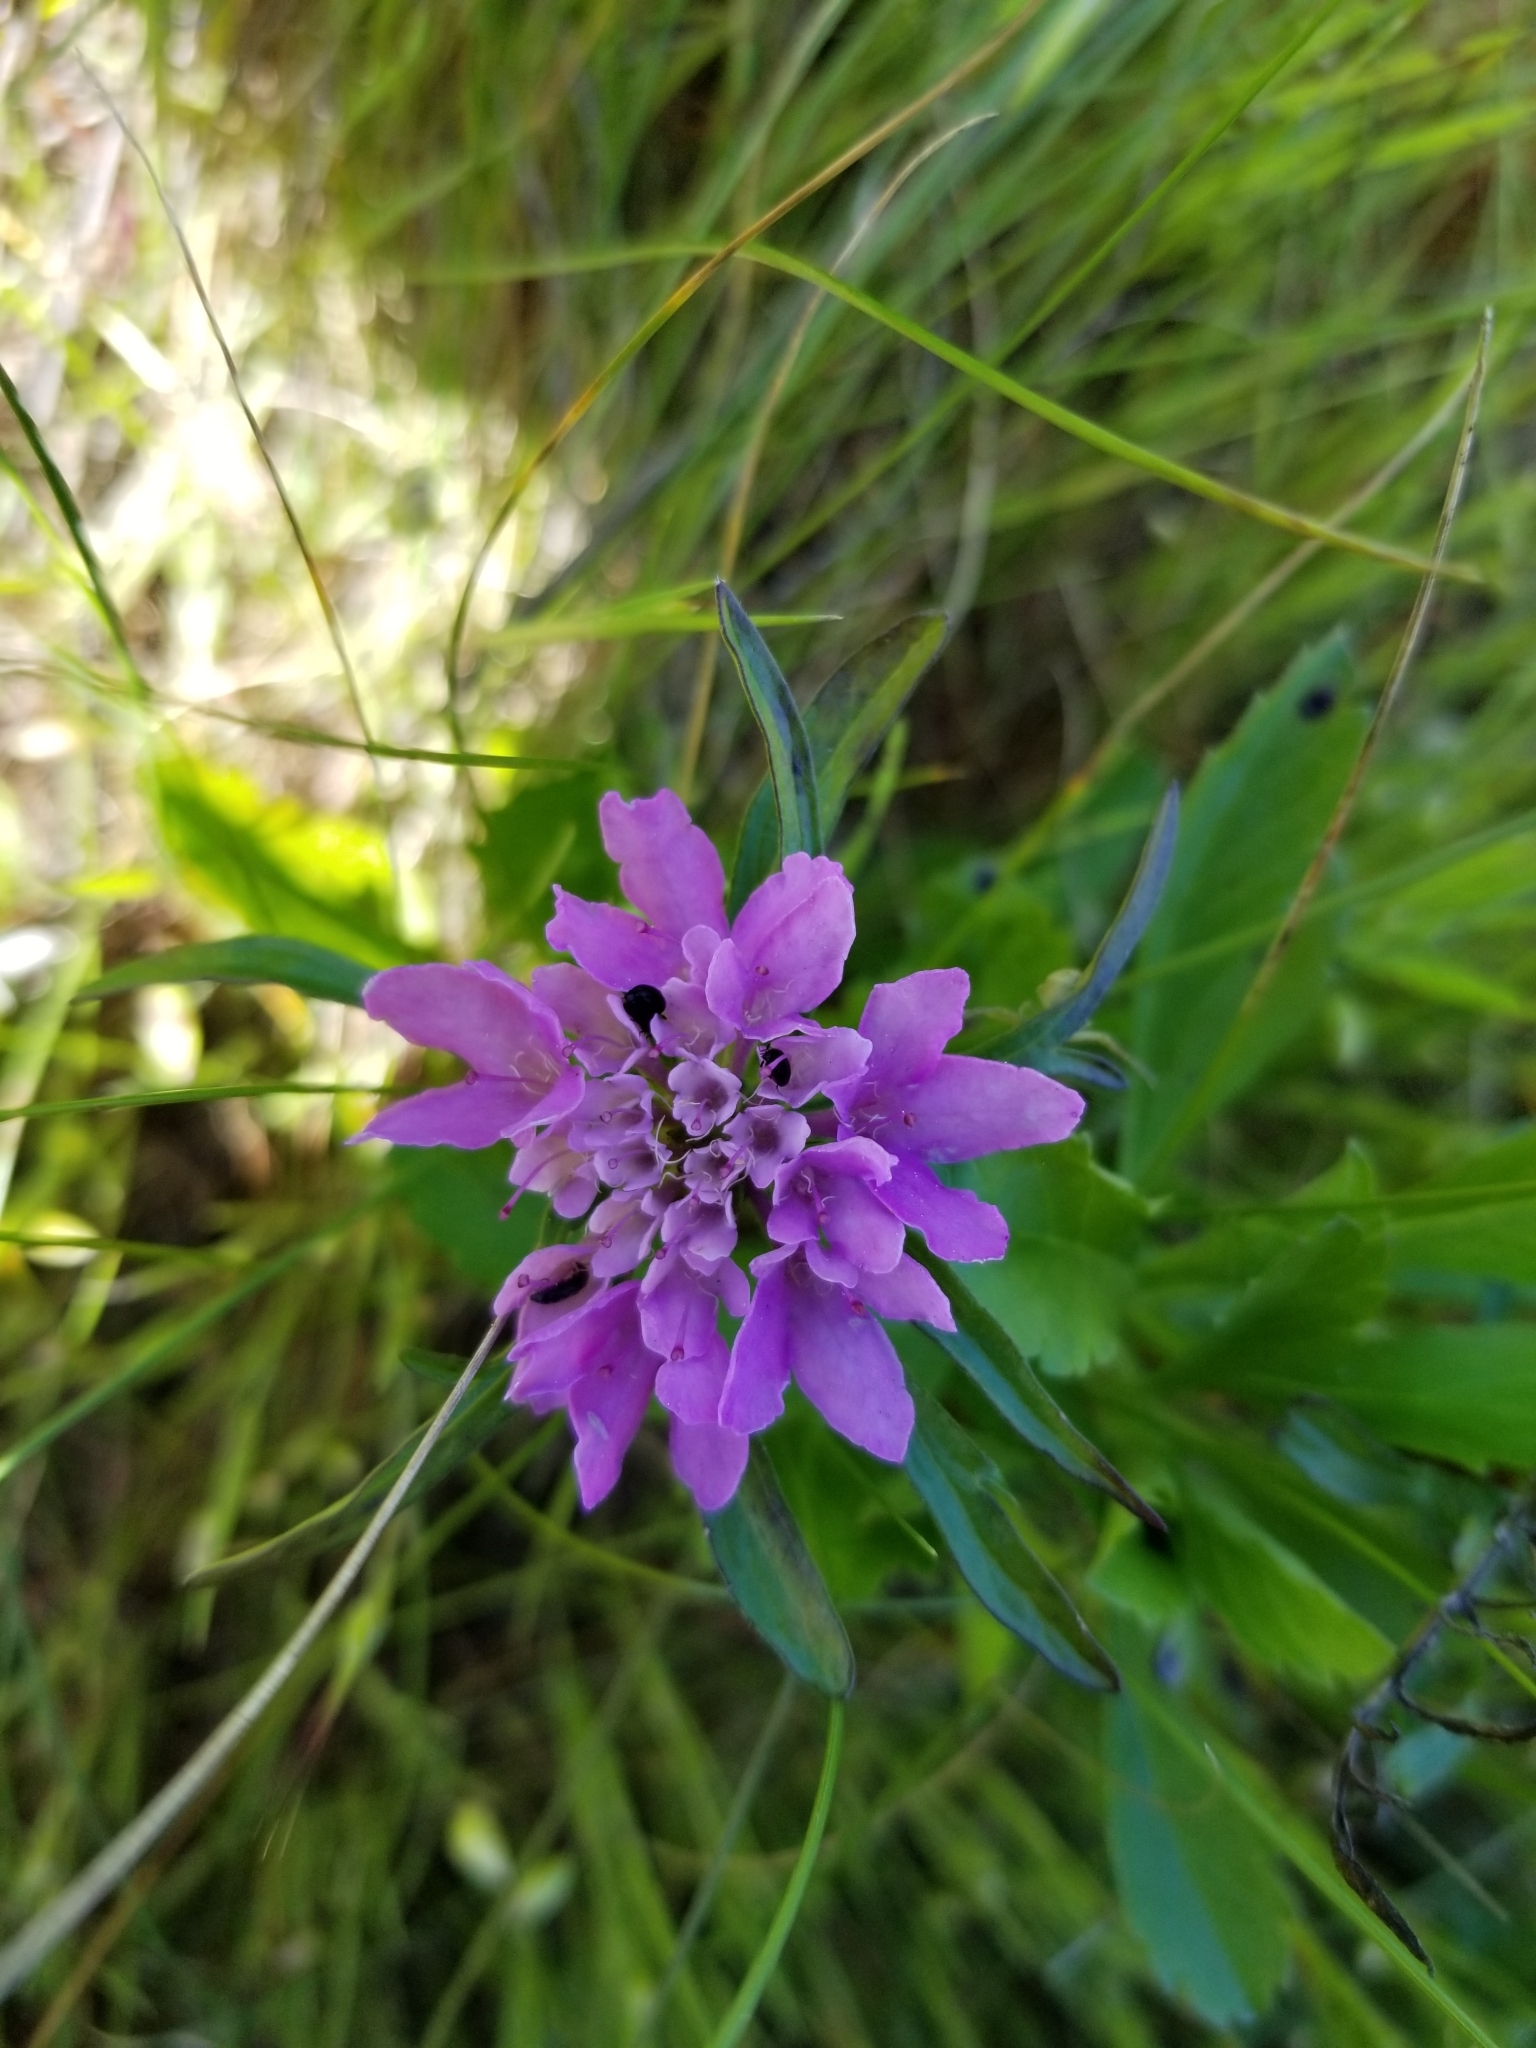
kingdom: Plantae
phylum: Tracheophyta
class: Magnoliopsida
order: Dipsacales
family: Caprifoliaceae
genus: Sixalix
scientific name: Sixalix atropurpurea
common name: Sweet scabious
